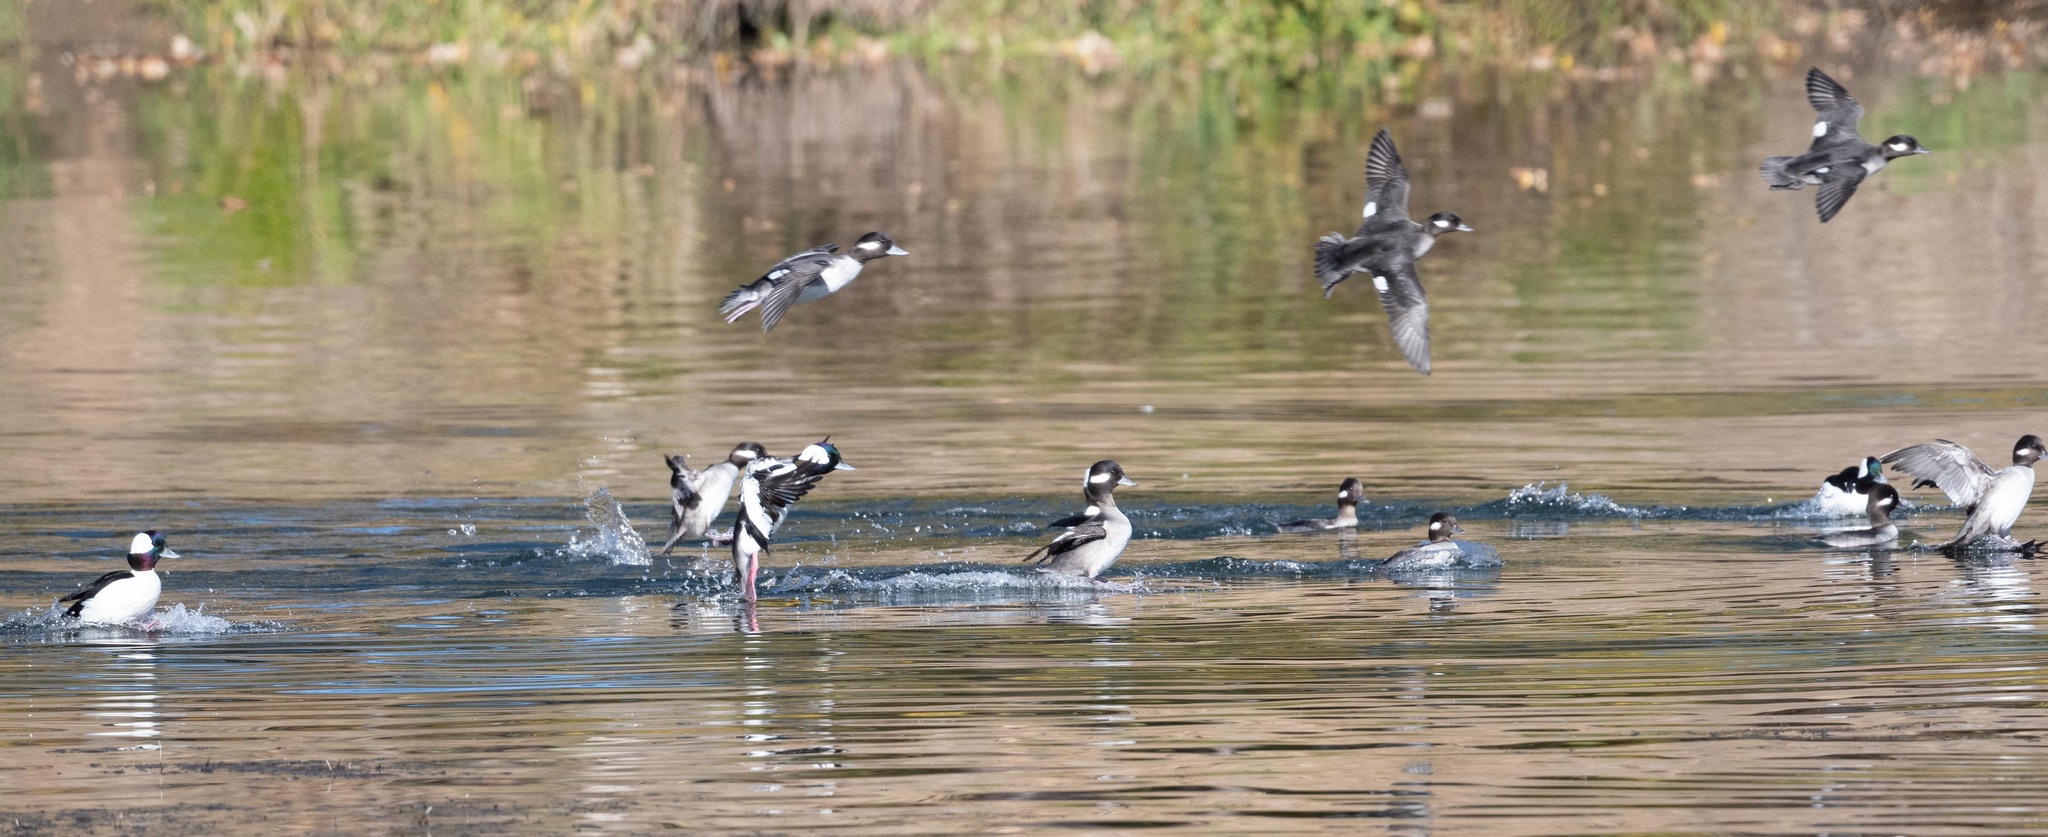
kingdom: Animalia
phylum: Chordata
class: Aves
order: Anseriformes
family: Anatidae
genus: Bucephala
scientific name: Bucephala albeola
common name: Bufflehead
